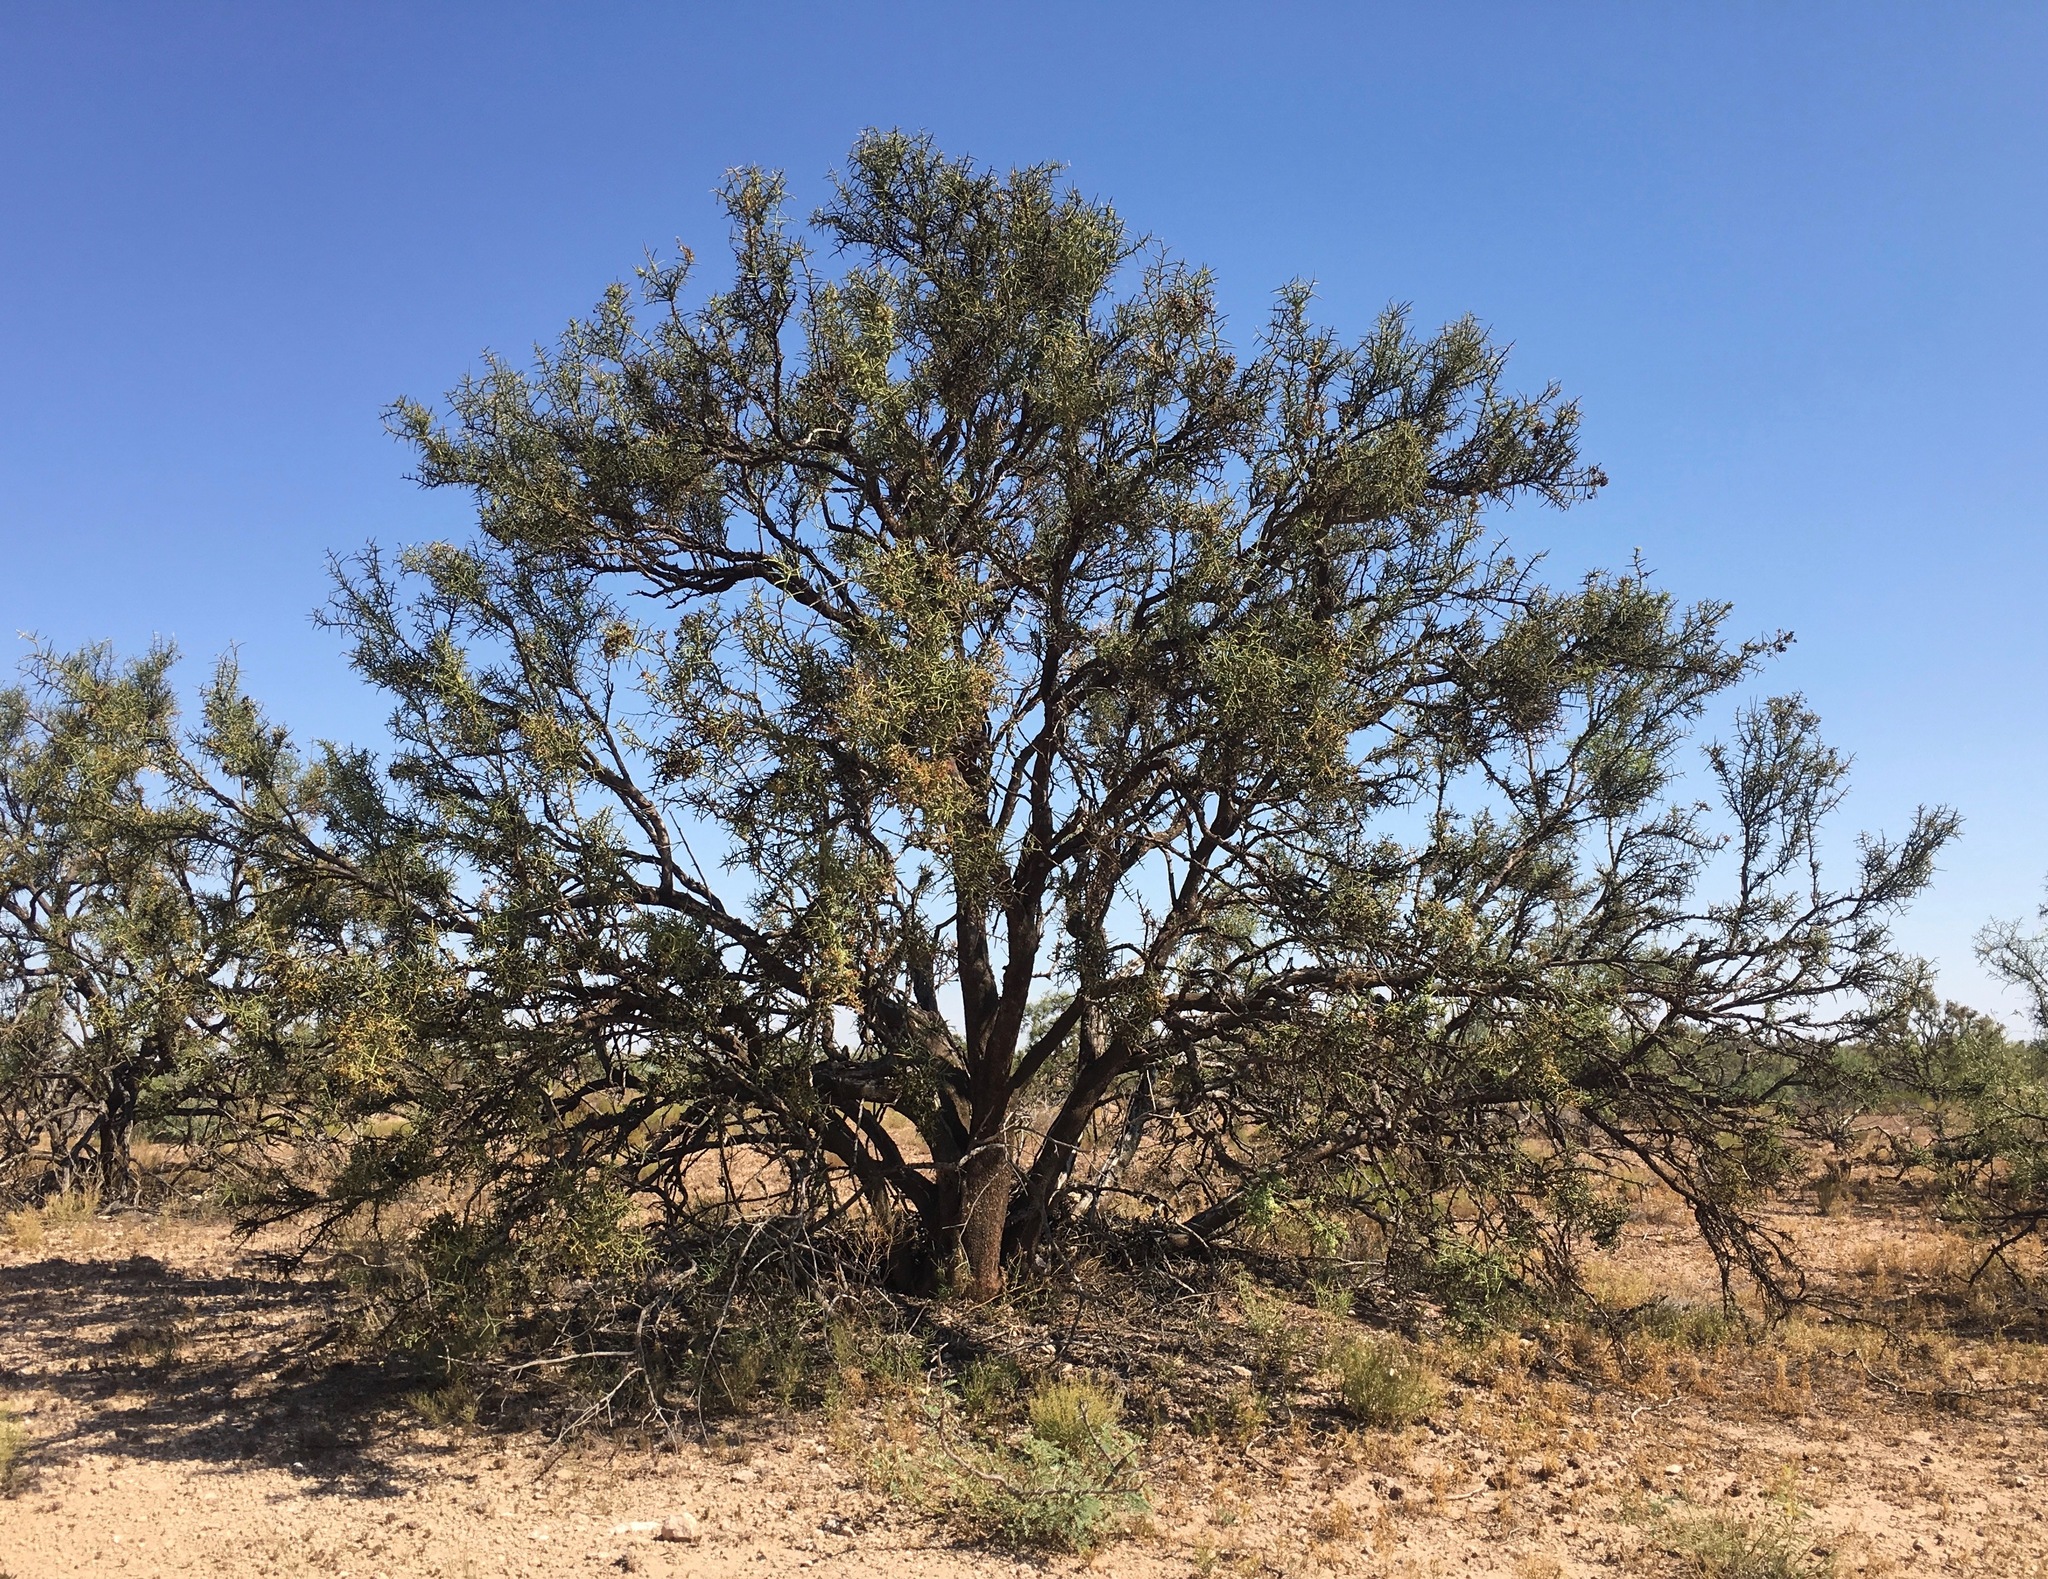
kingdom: Plantae
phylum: Tracheophyta
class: Magnoliopsida
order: Brassicales
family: Koeberliniaceae
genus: Koeberlinia
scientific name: Koeberlinia spinosa
